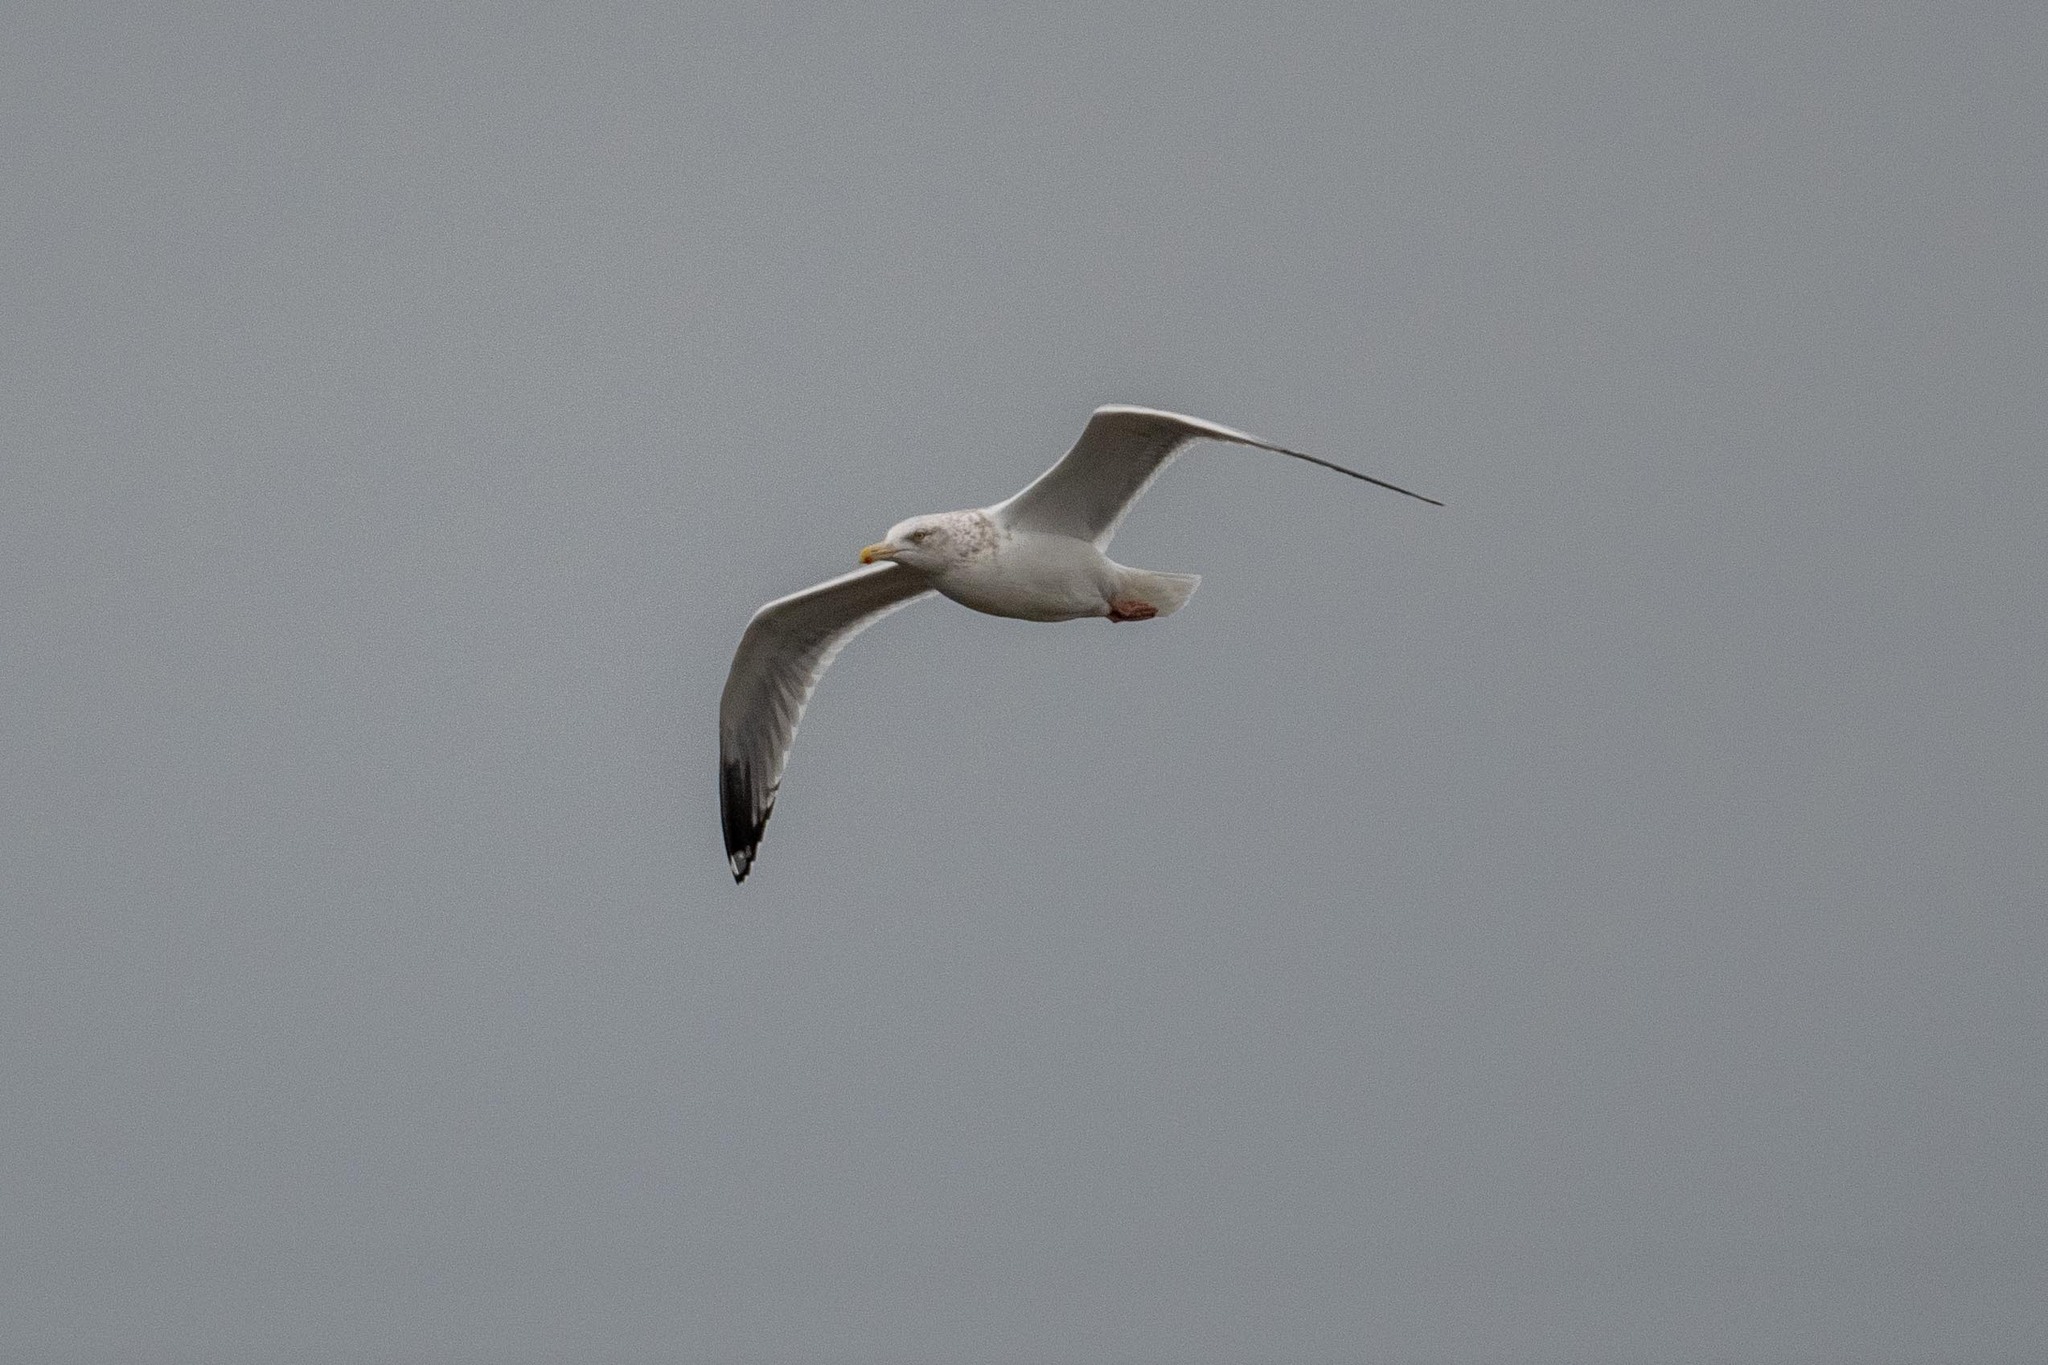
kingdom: Animalia
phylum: Chordata
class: Aves
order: Charadriiformes
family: Laridae
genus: Larus
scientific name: Larus argentatus
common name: Herring gull
